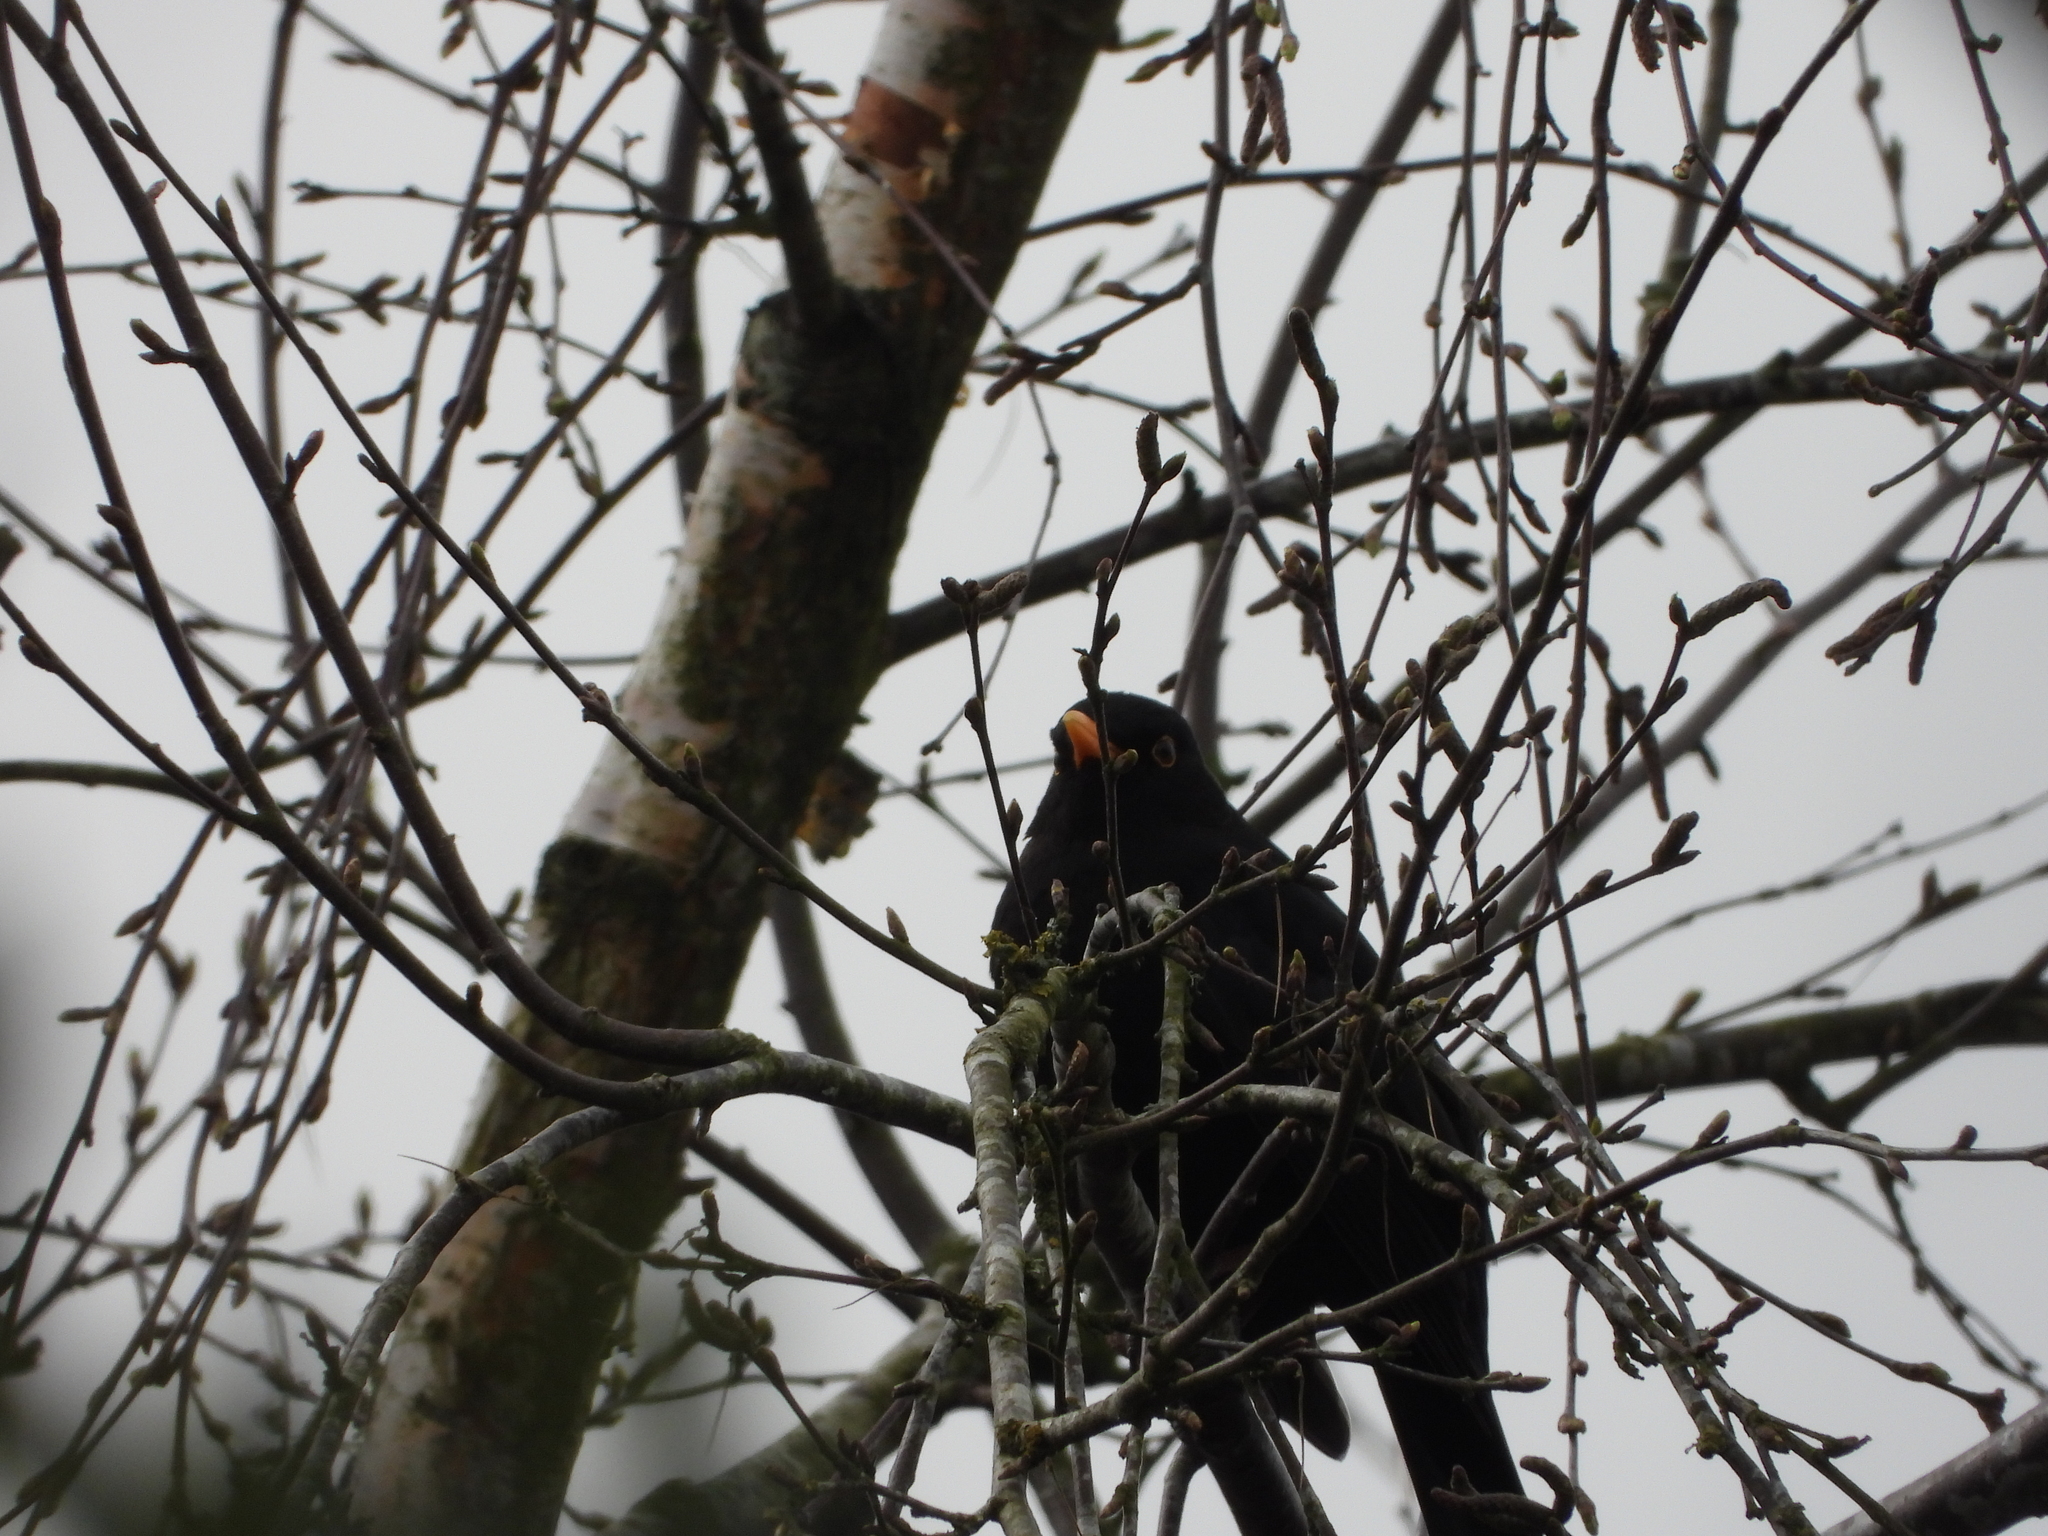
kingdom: Animalia
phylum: Chordata
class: Aves
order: Passeriformes
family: Turdidae
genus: Turdus
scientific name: Turdus merula
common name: Common blackbird
